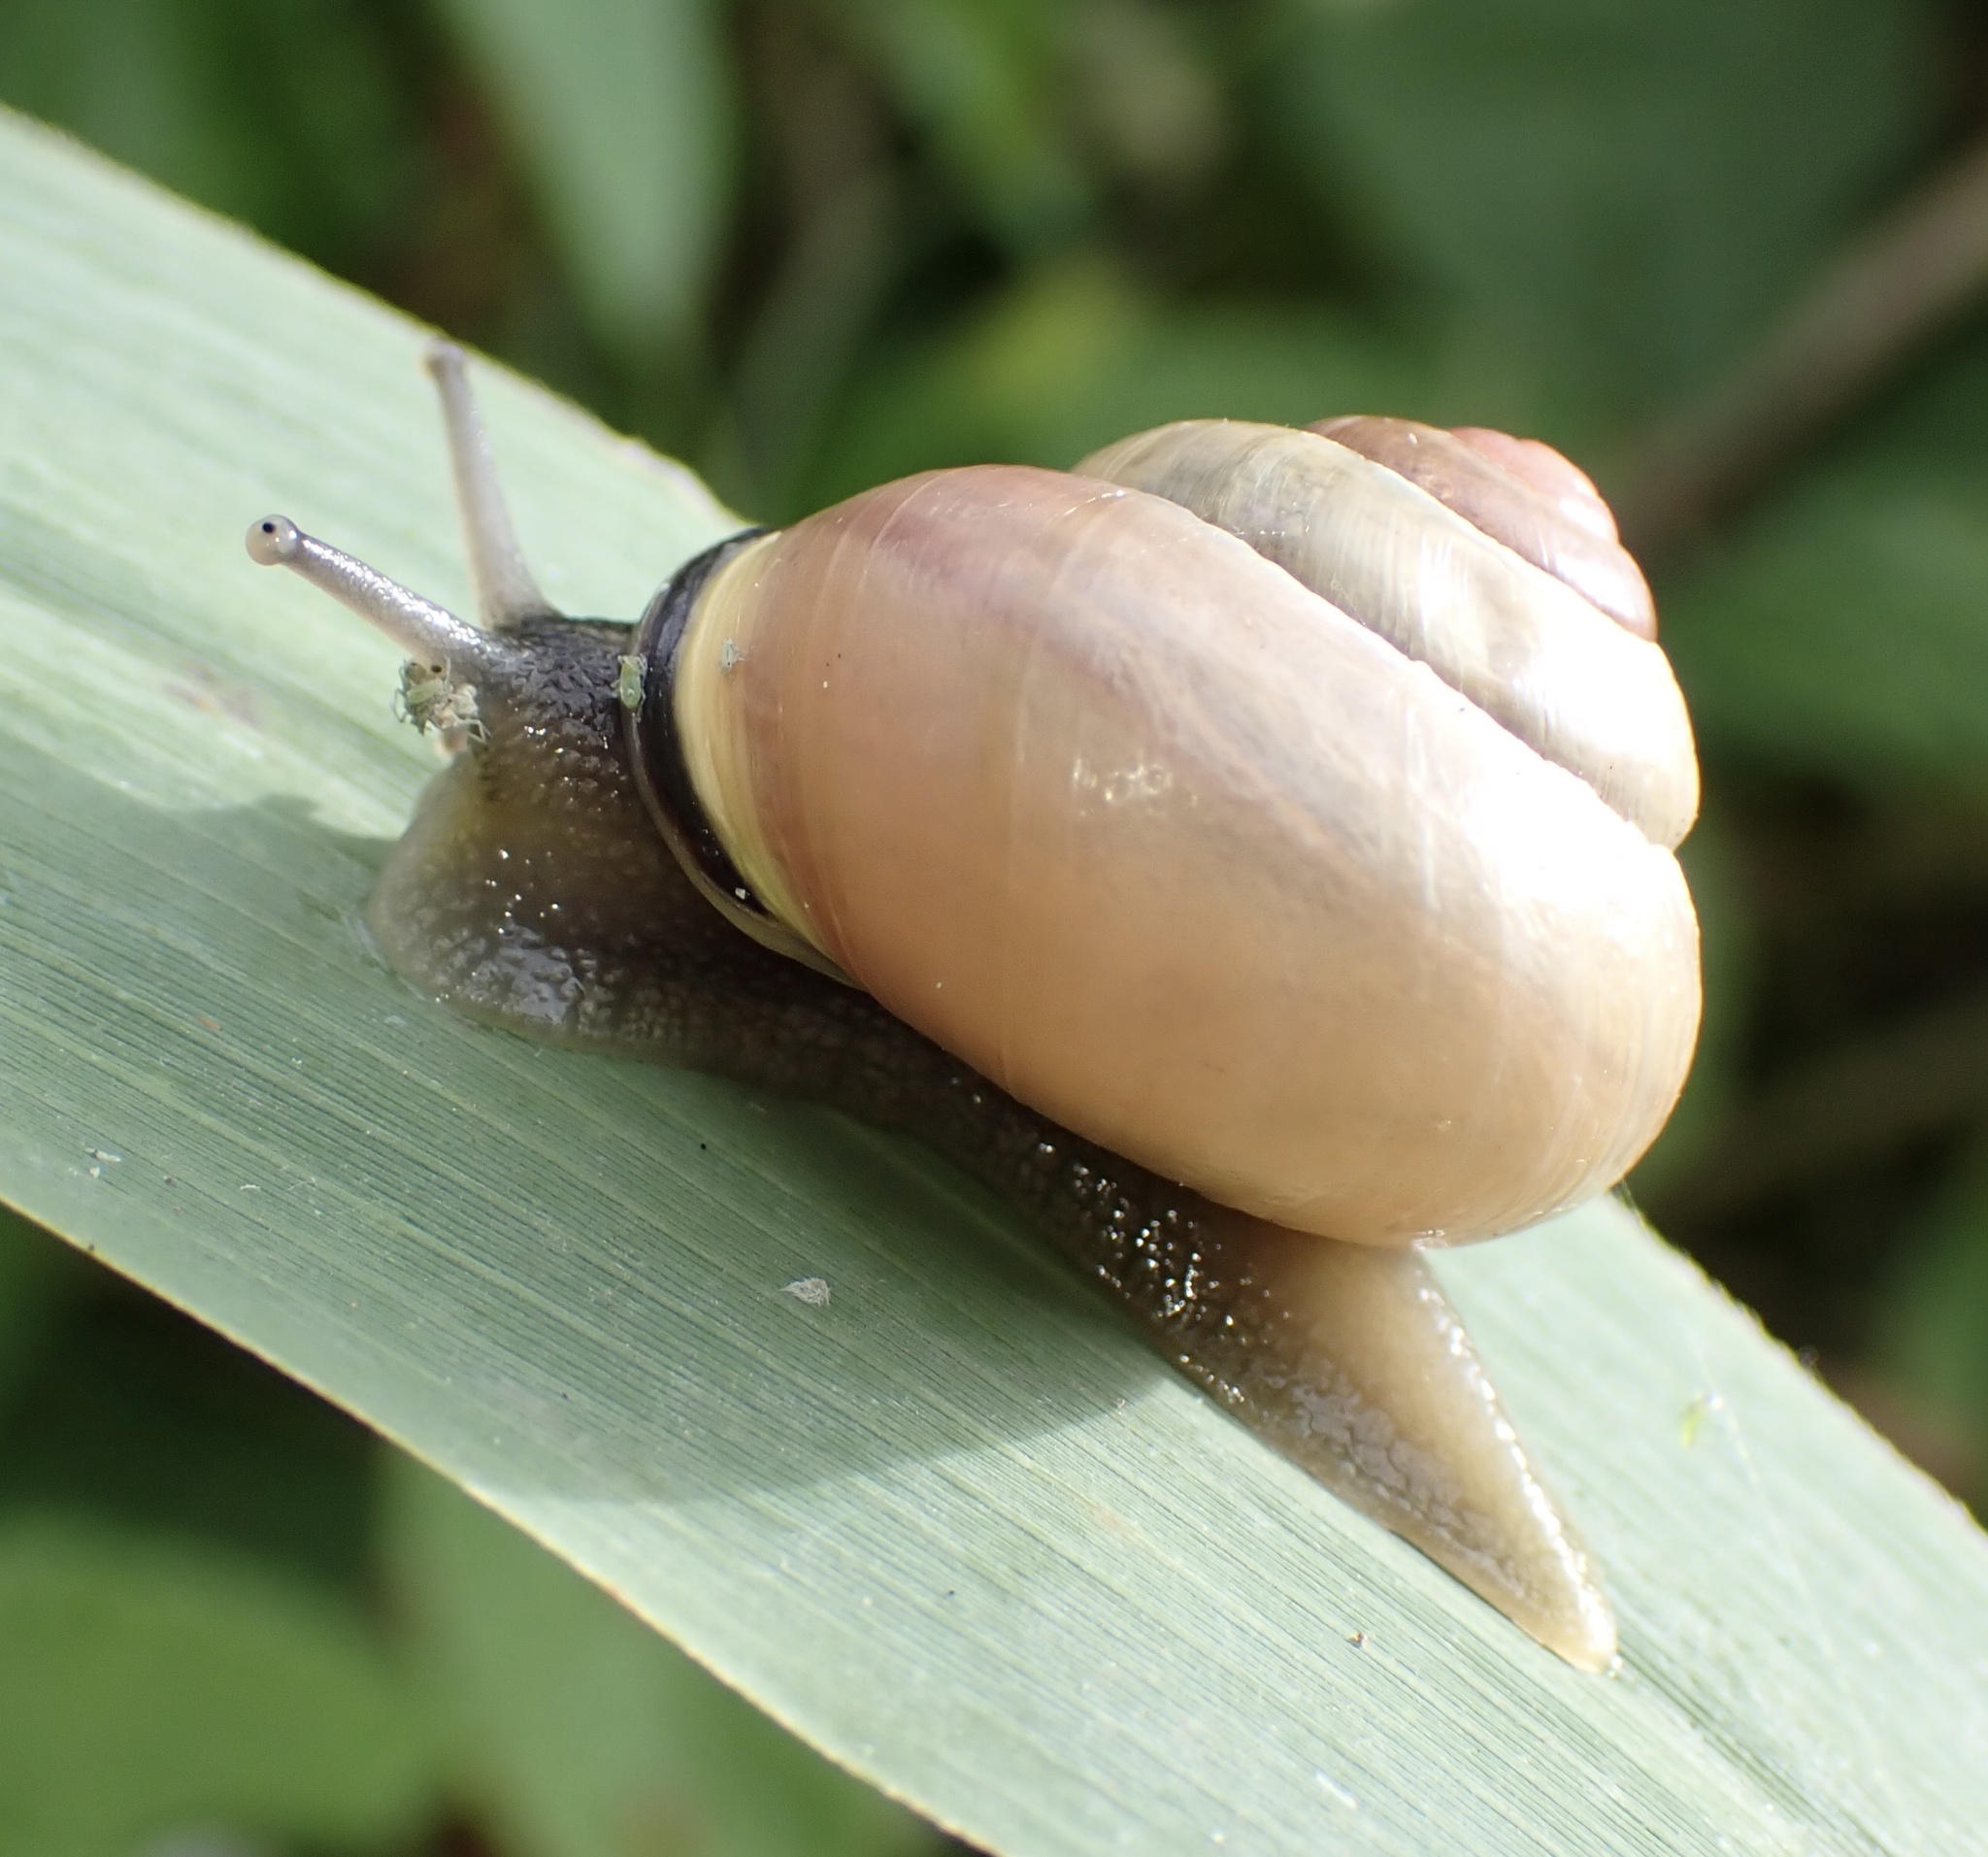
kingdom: Animalia
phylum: Mollusca
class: Gastropoda
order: Stylommatophora
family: Helicidae
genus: Cepaea
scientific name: Cepaea nemoralis
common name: Grovesnail
